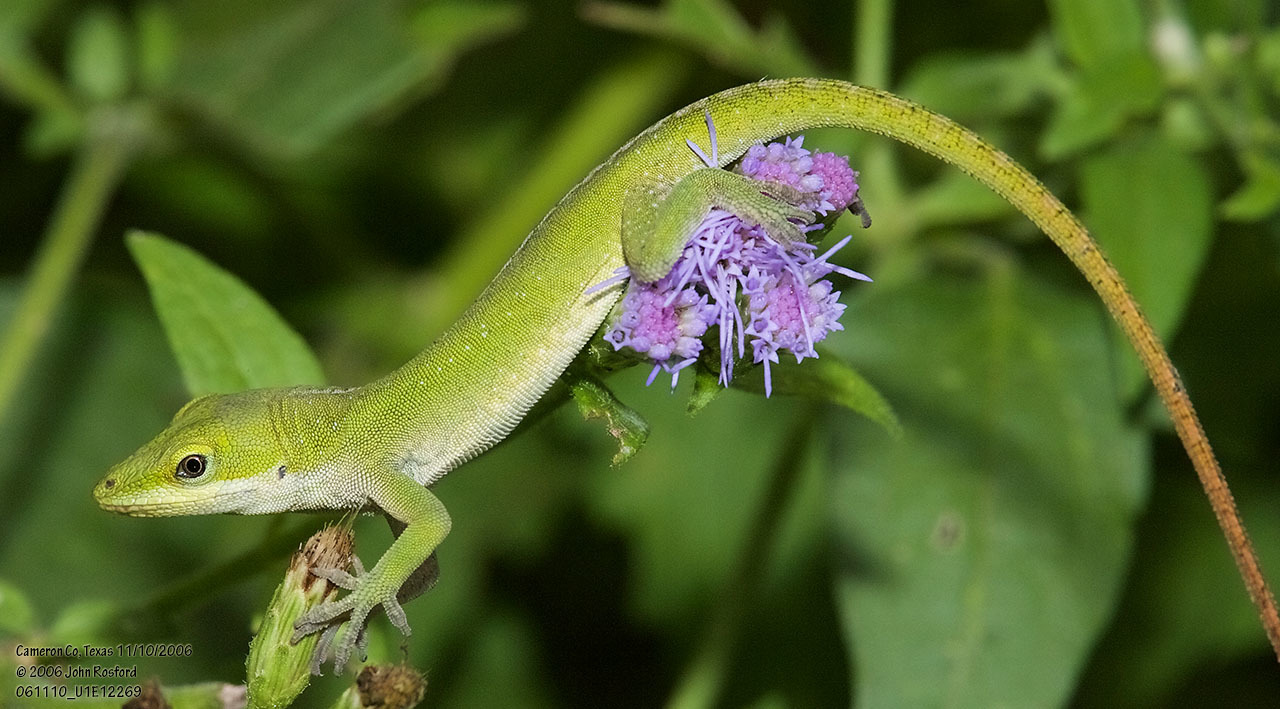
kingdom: Animalia
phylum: Chordata
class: Squamata
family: Dactyloidae
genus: Anolis
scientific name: Anolis carolinensis
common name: Green anole
